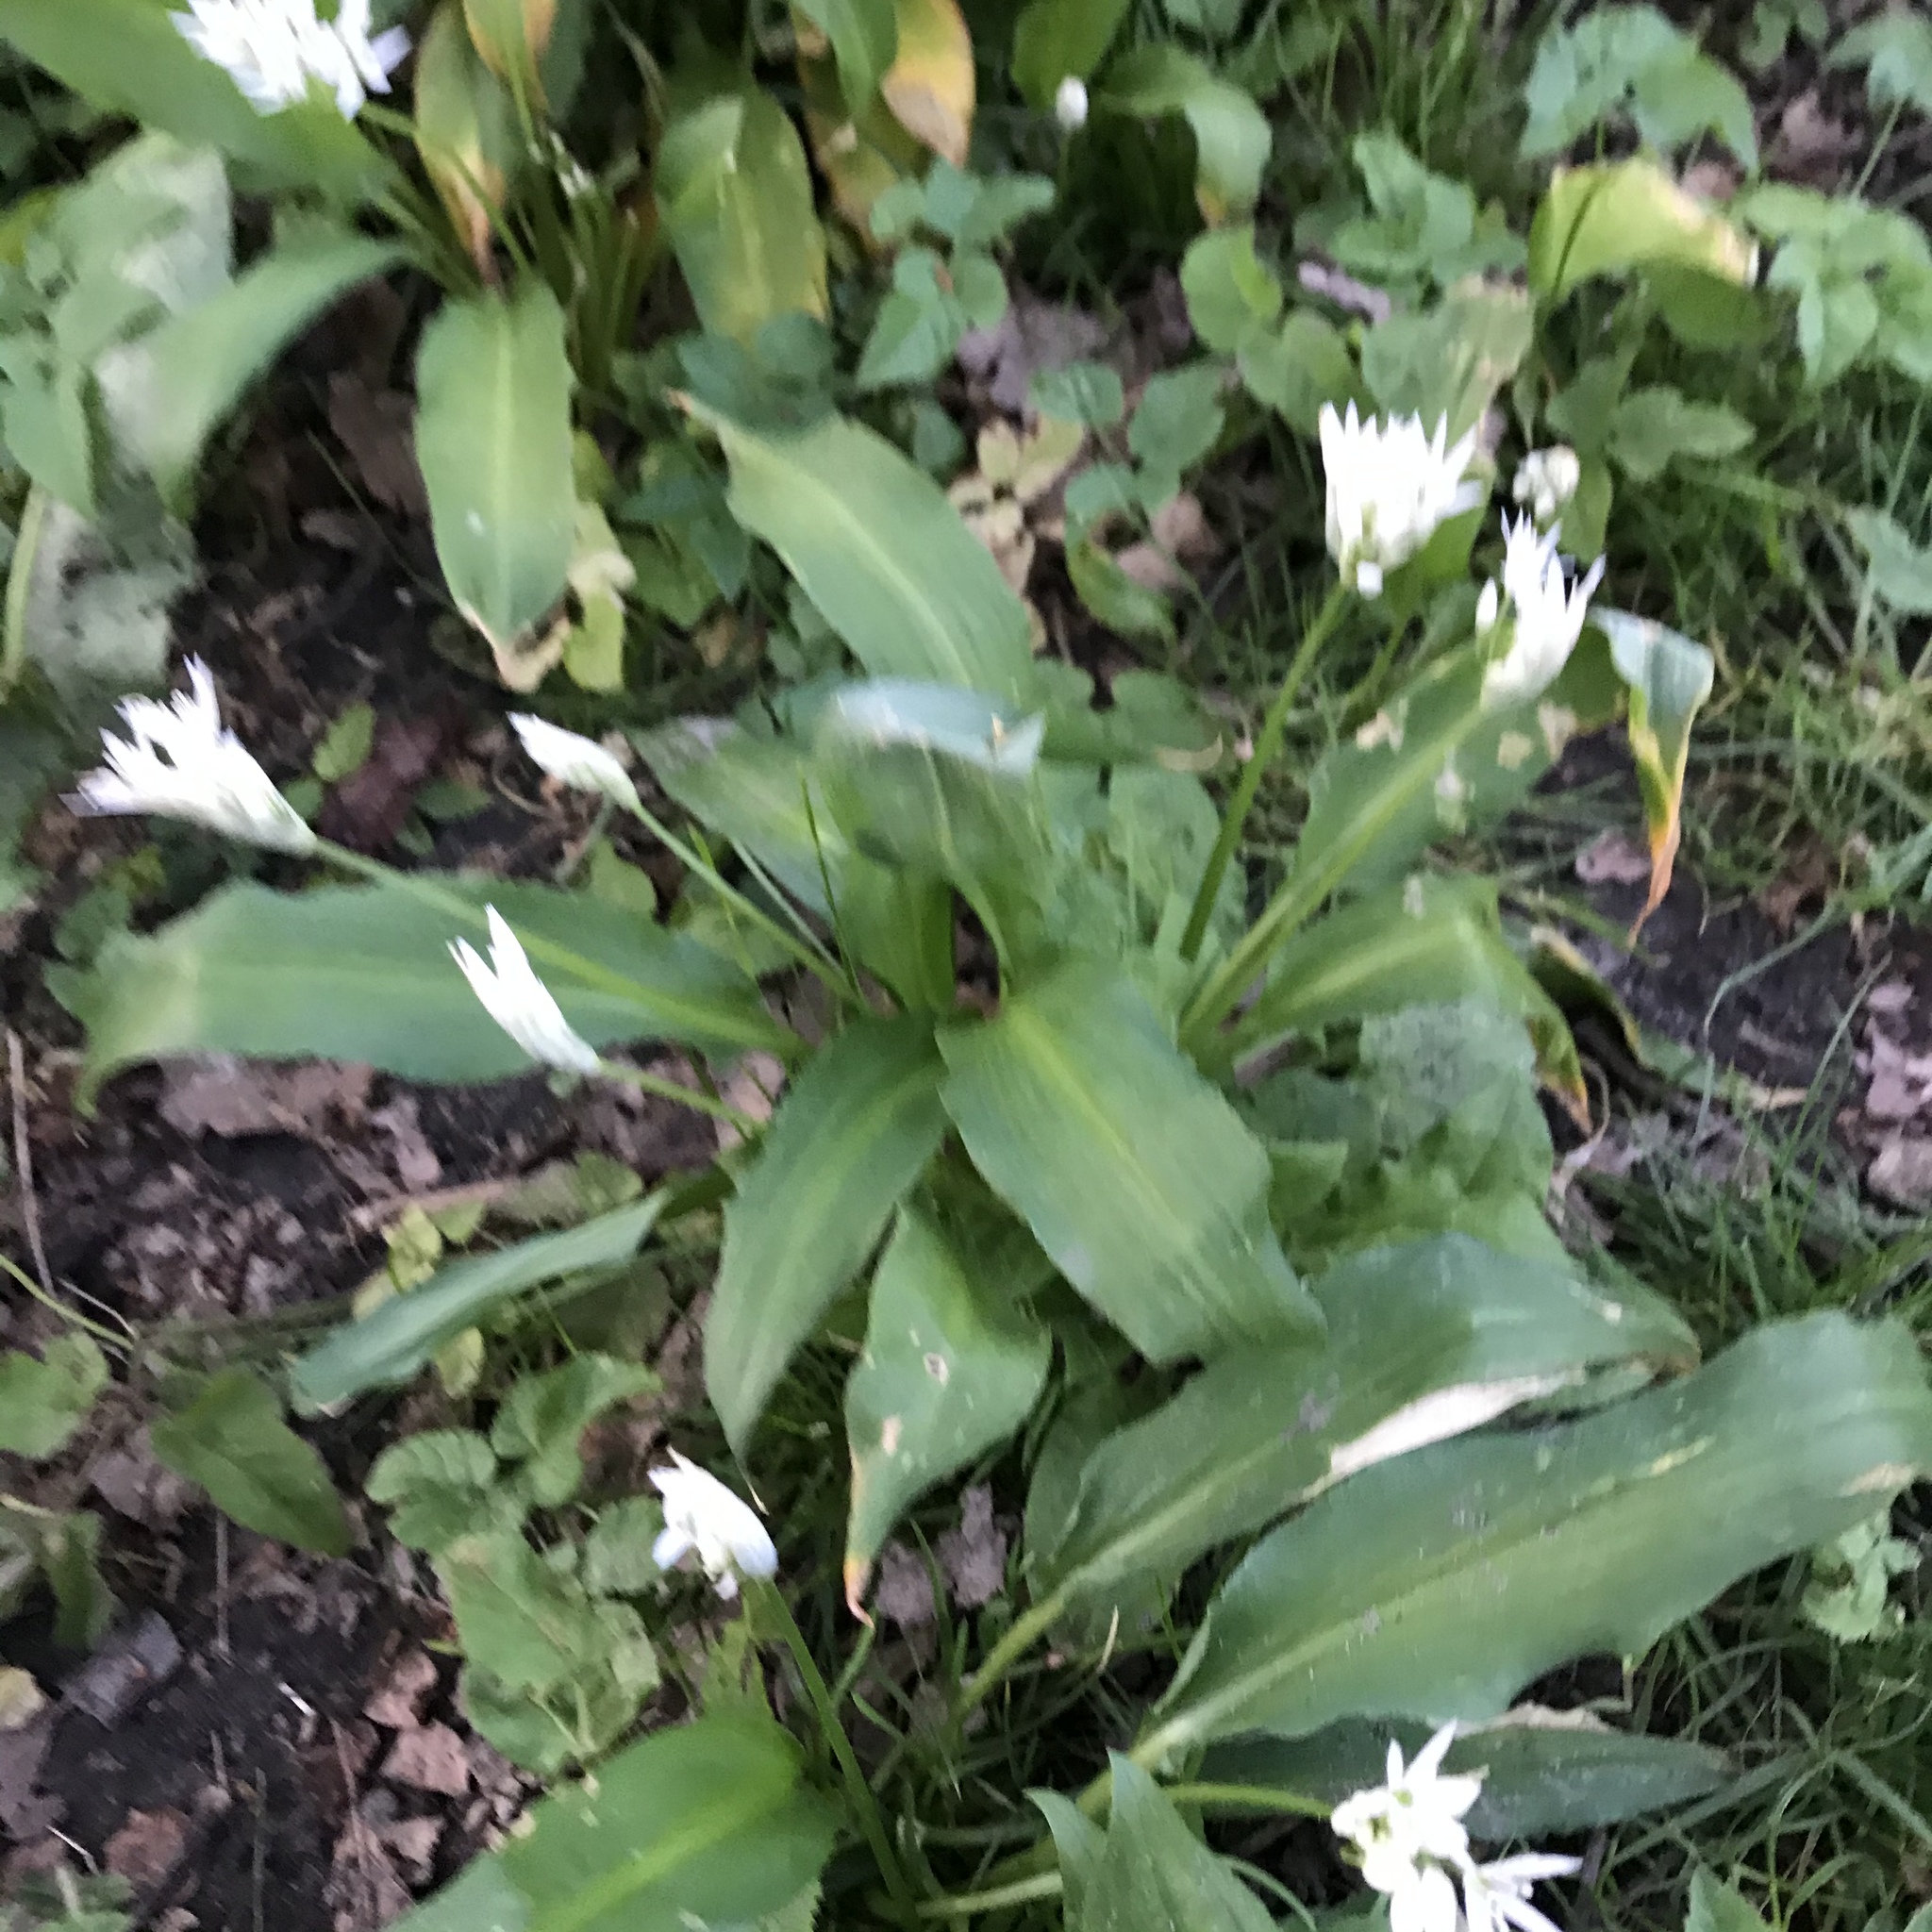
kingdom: Plantae
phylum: Tracheophyta
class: Liliopsida
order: Asparagales
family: Amaryllidaceae
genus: Allium
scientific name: Allium ursinum
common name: Ramsons
